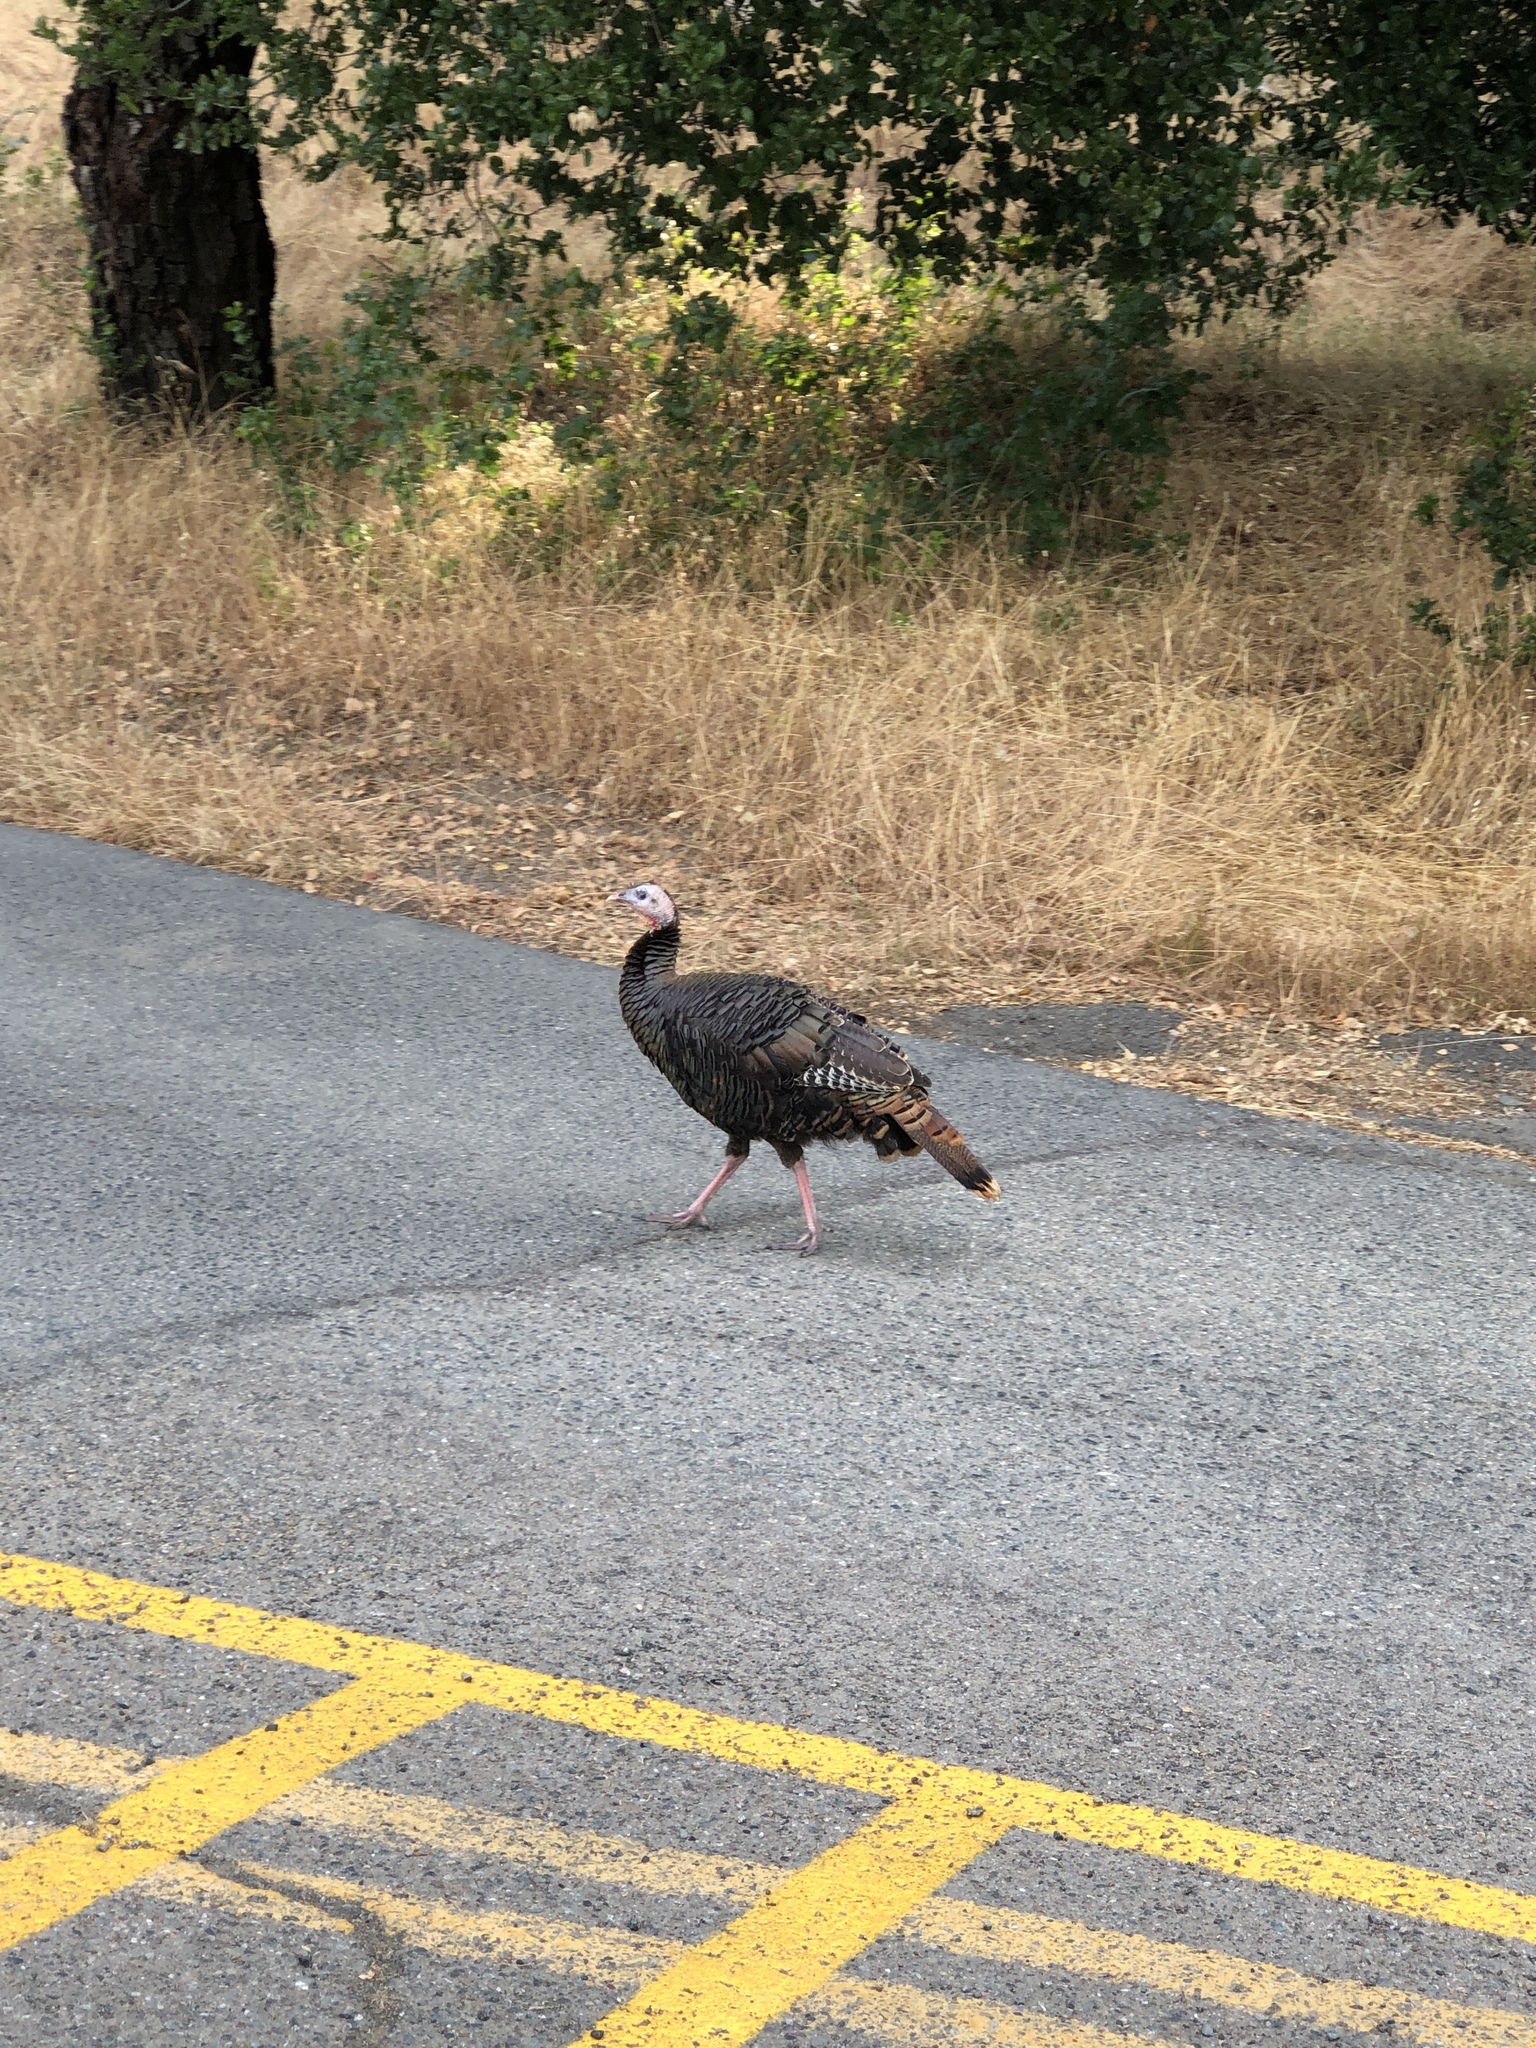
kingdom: Animalia
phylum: Chordata
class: Aves
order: Galliformes
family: Phasianidae
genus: Meleagris
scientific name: Meleagris gallopavo
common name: Wild turkey
